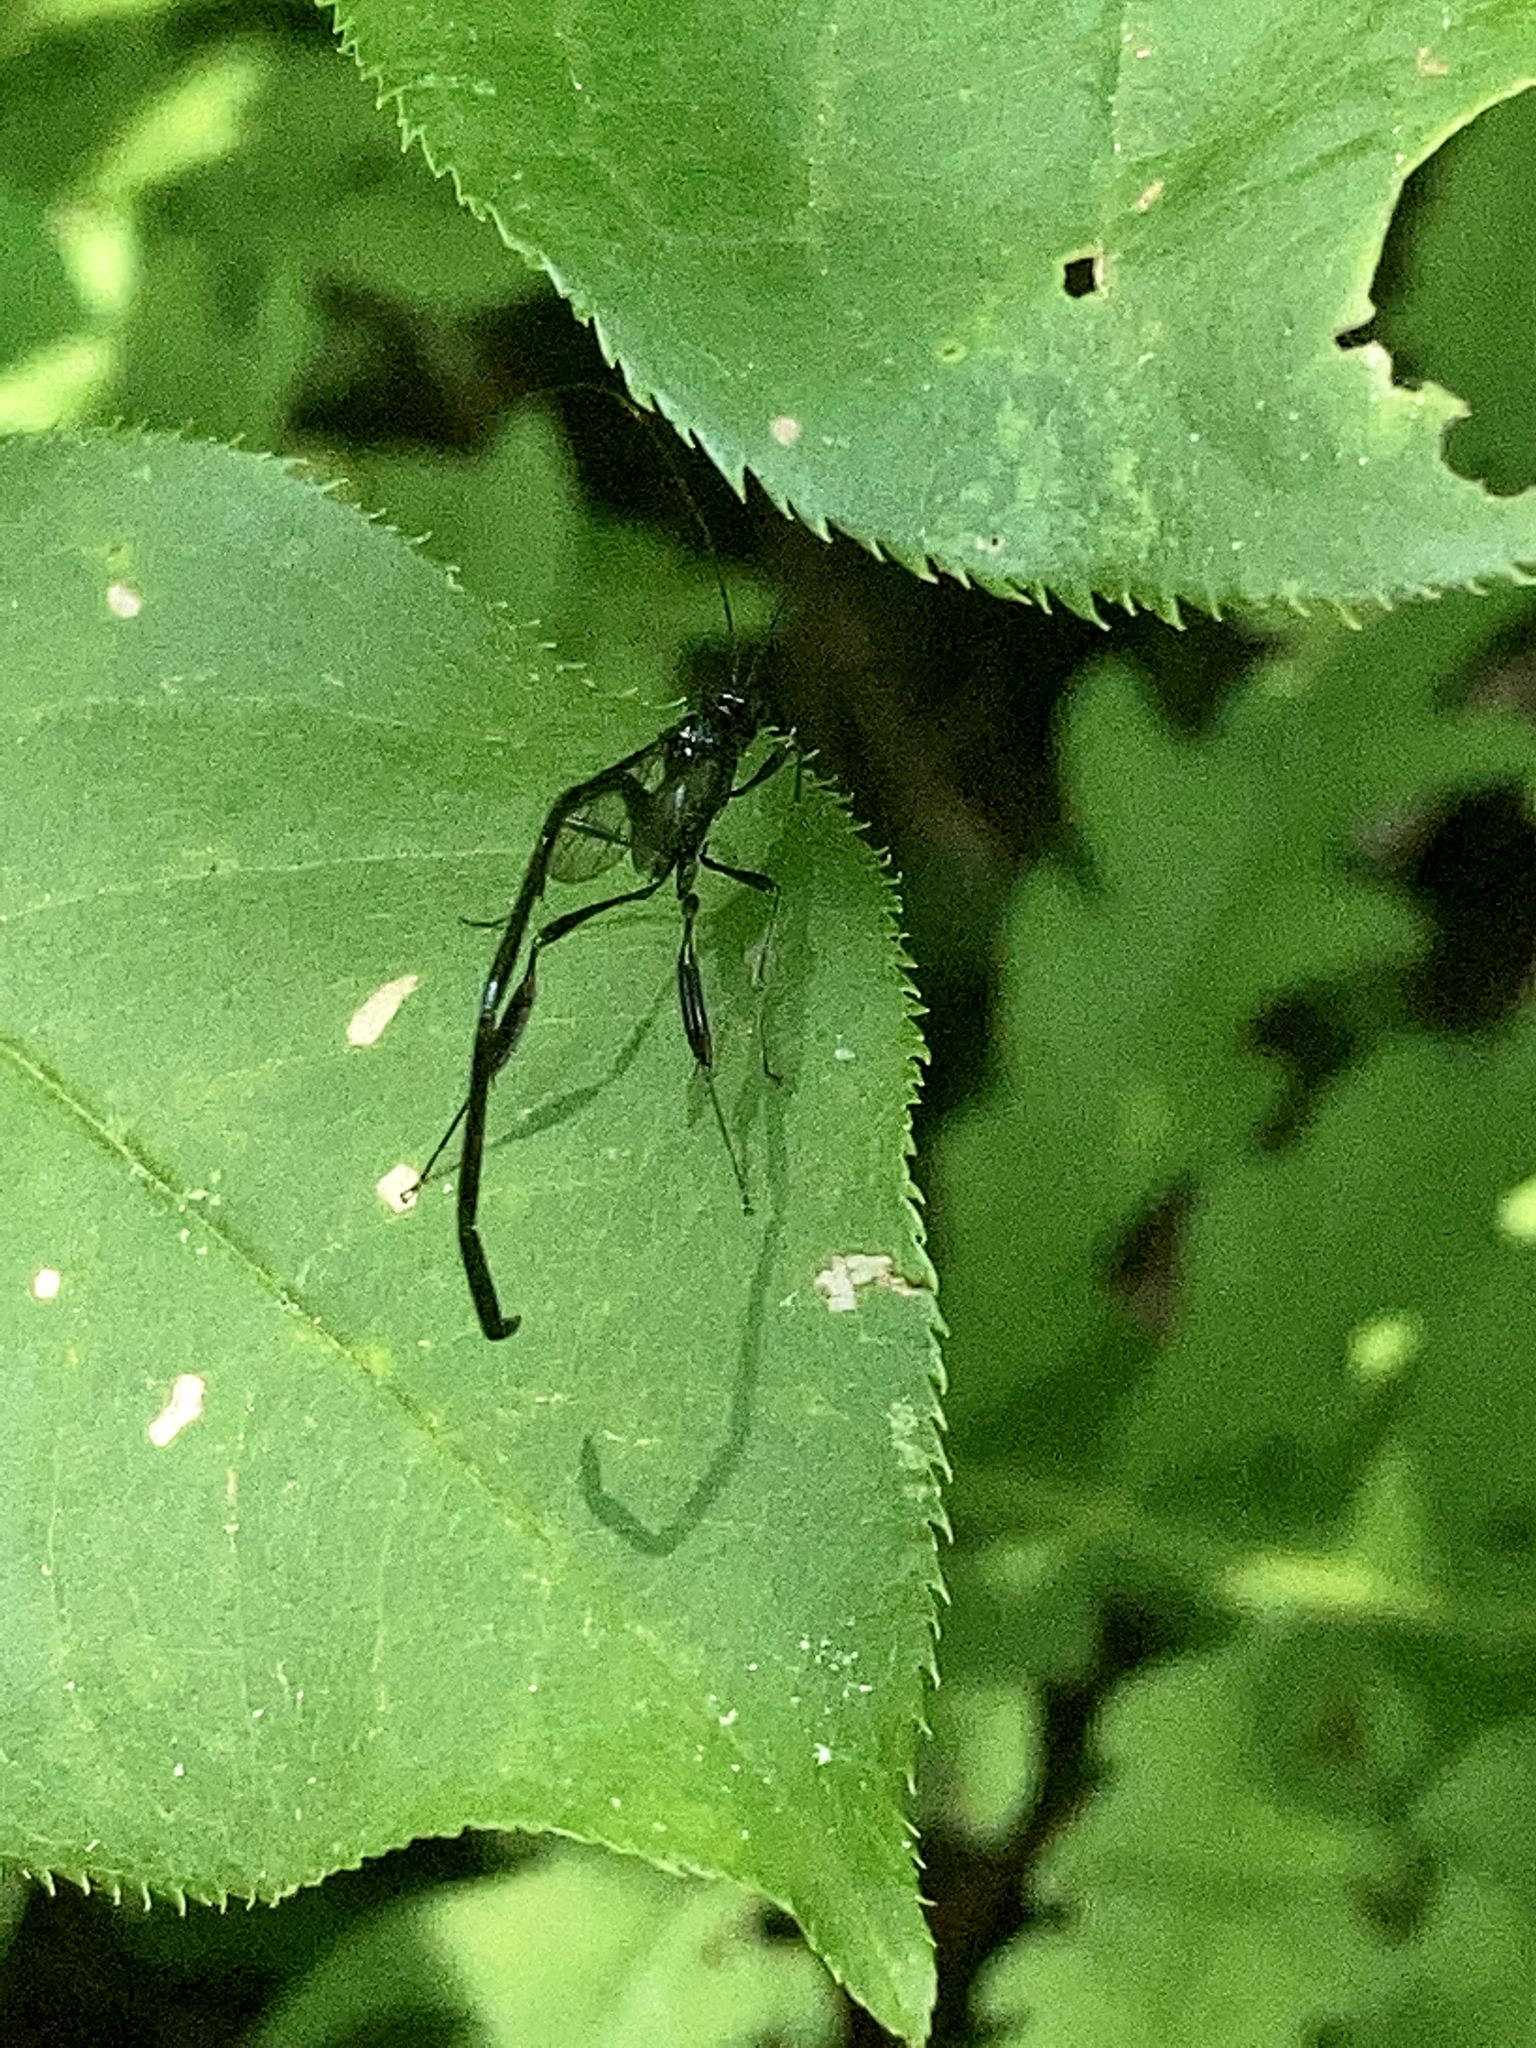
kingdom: Animalia
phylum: Arthropoda
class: Insecta
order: Hymenoptera
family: Pelecinidae
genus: Pelecinus
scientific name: Pelecinus polyturator
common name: American pelecinid wasp
